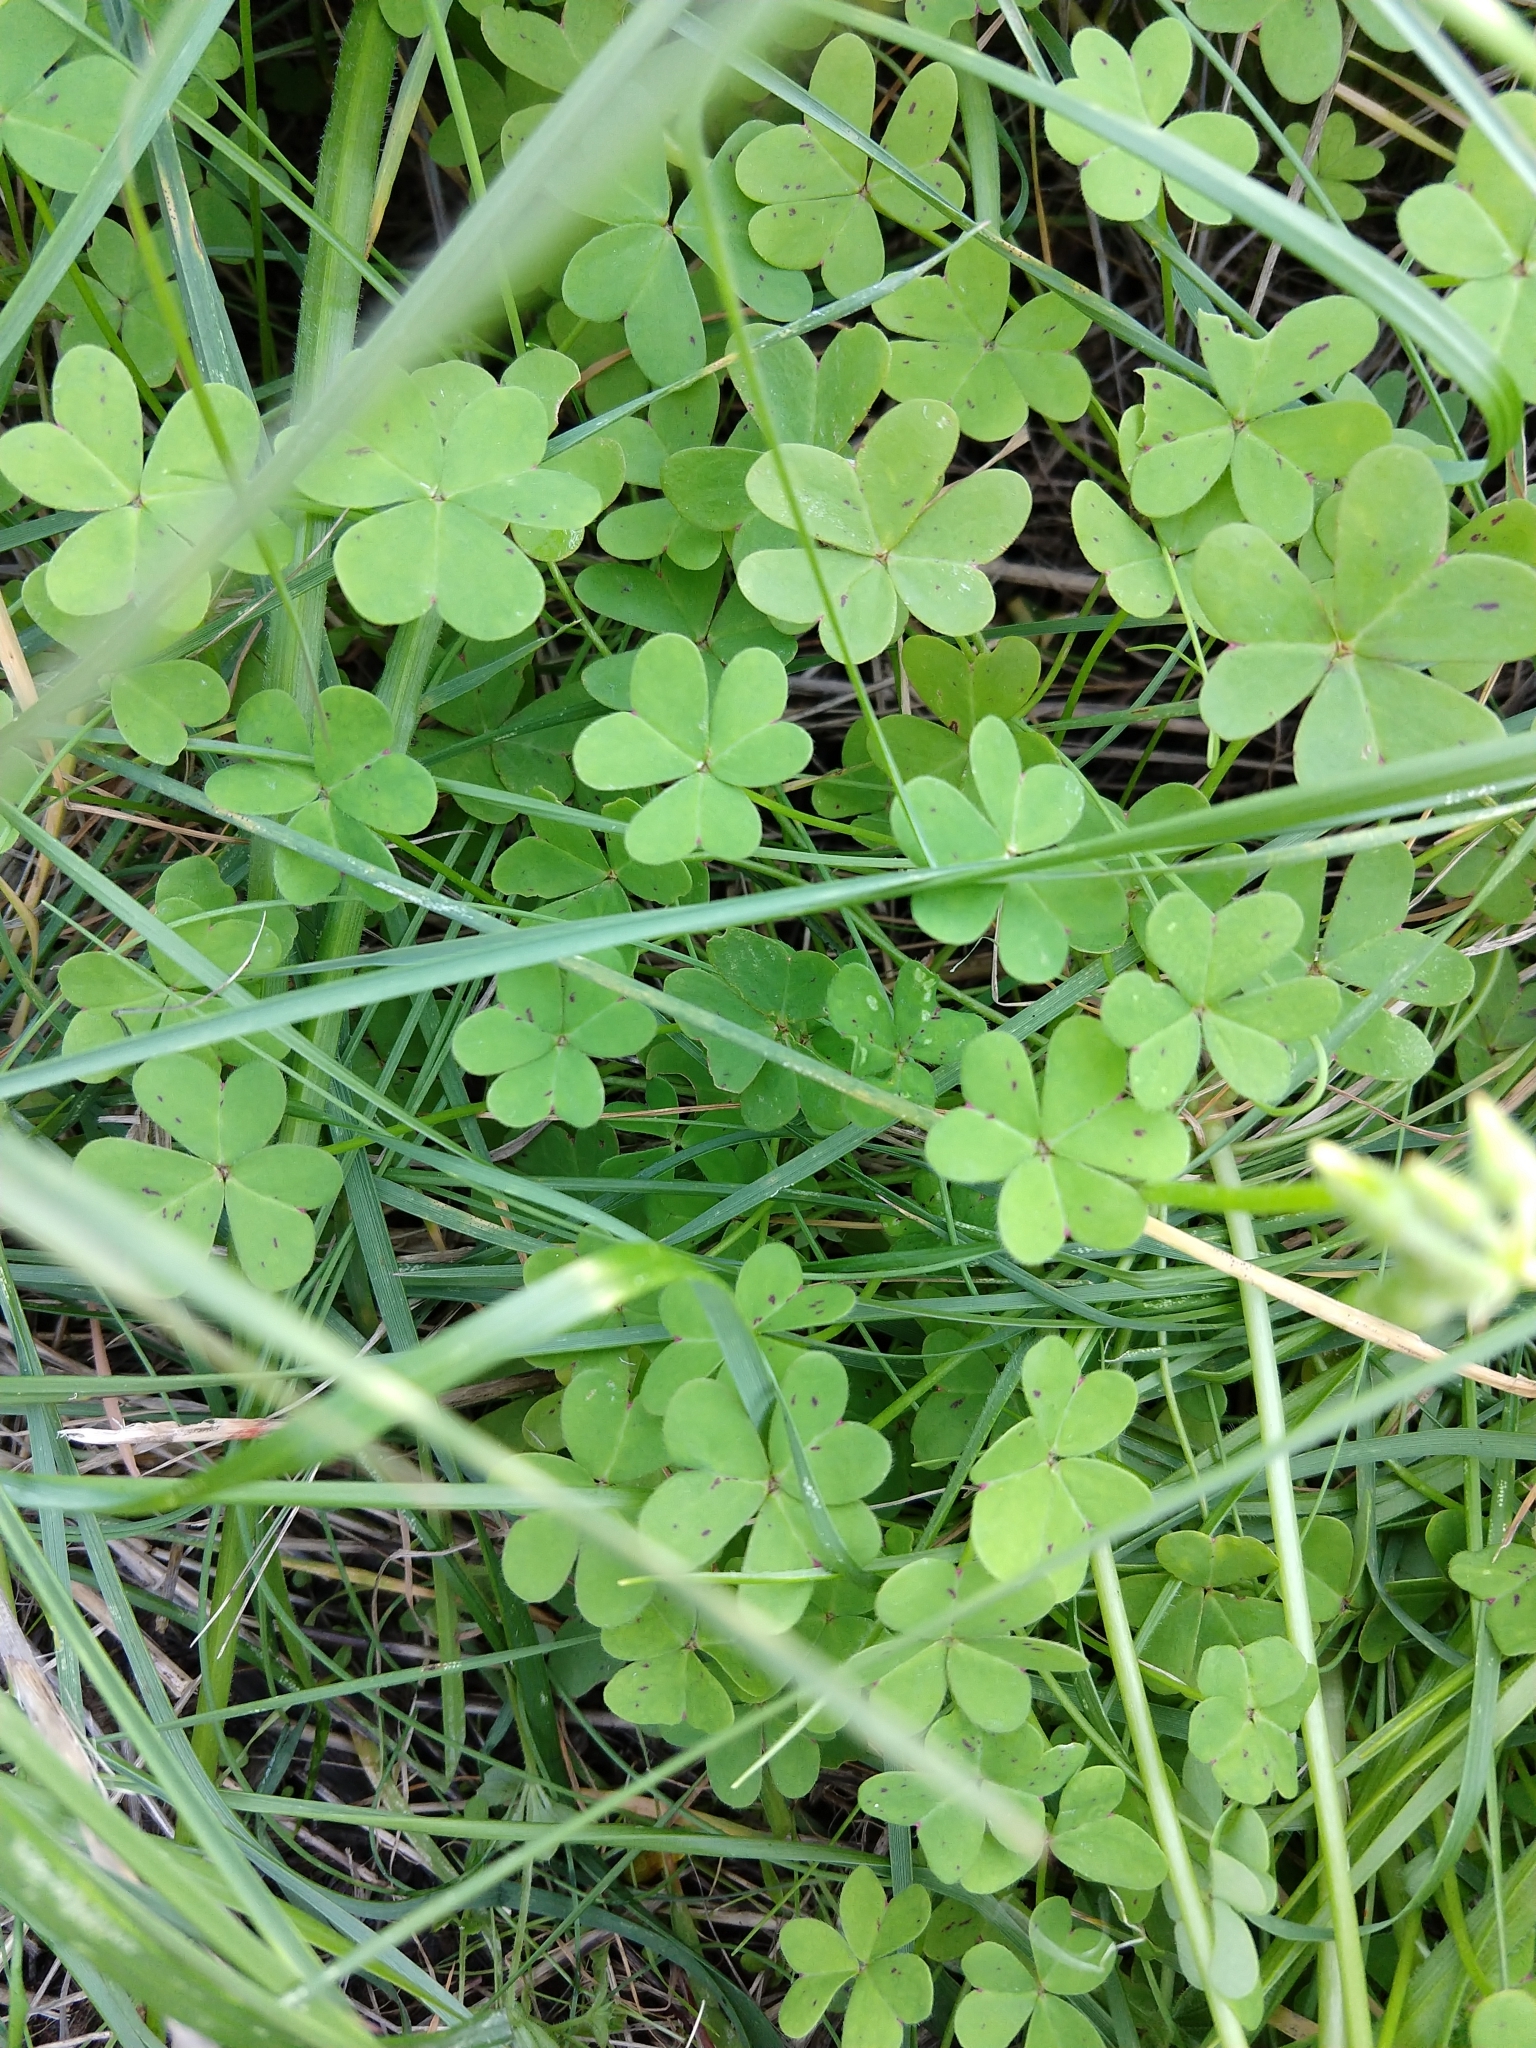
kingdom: Plantae
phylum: Tracheophyta
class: Magnoliopsida
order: Oxalidales
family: Oxalidaceae
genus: Oxalis
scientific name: Oxalis pes-caprae
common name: Bermuda-buttercup
